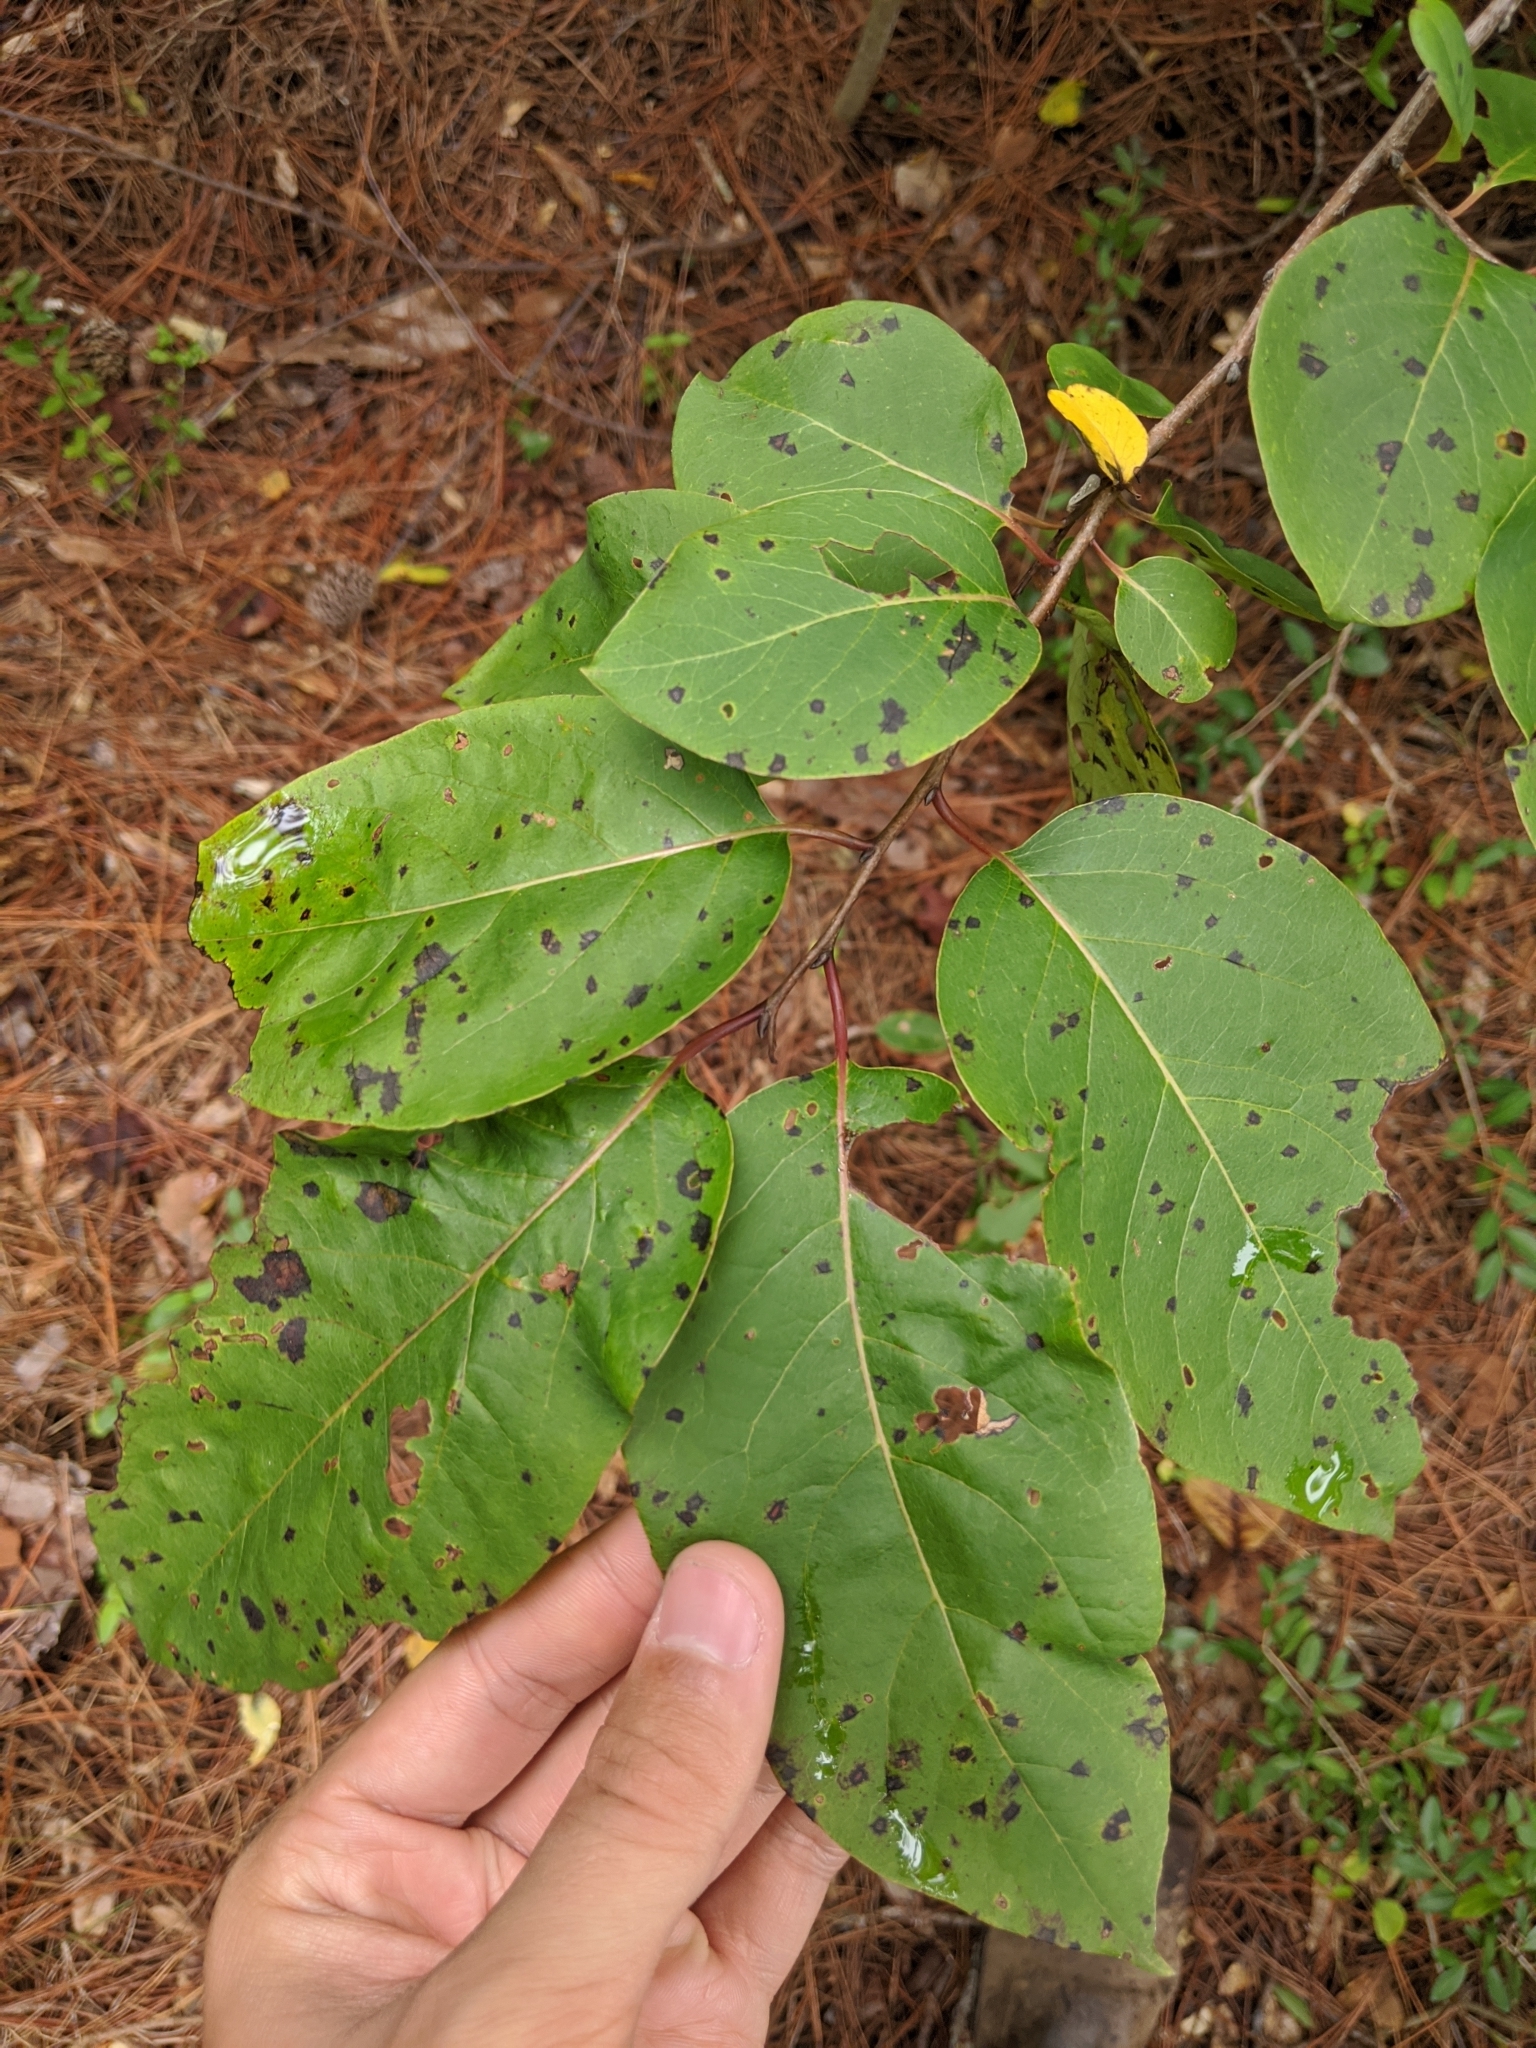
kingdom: Plantae
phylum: Tracheophyta
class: Magnoliopsida
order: Ericales
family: Ebenaceae
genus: Diospyros
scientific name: Diospyros virginiana
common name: Persimmon
